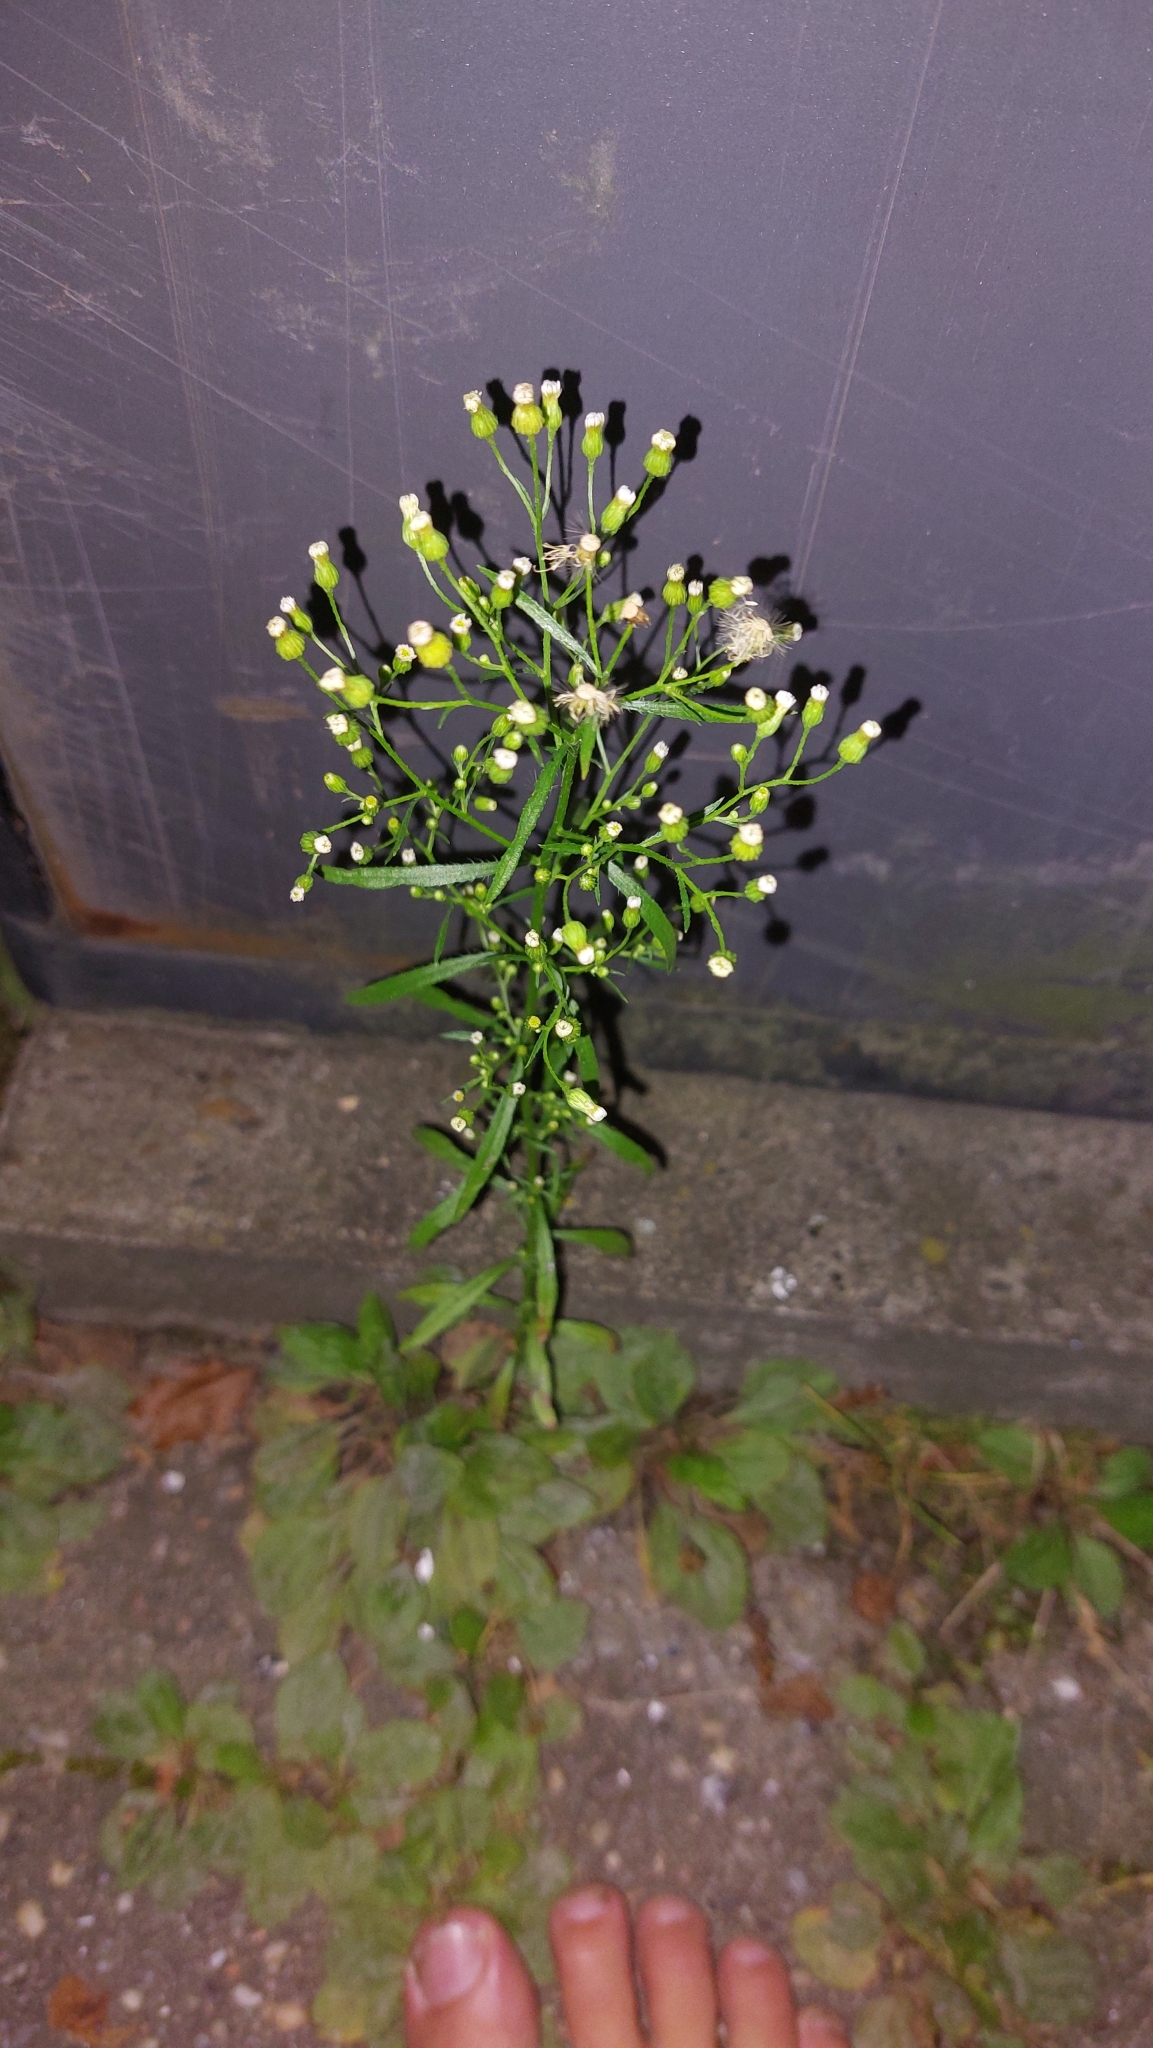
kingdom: Plantae
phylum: Tracheophyta
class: Magnoliopsida
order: Asterales
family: Asteraceae
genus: Erigeron
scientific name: Erigeron canadensis
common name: Canadian fleabane
